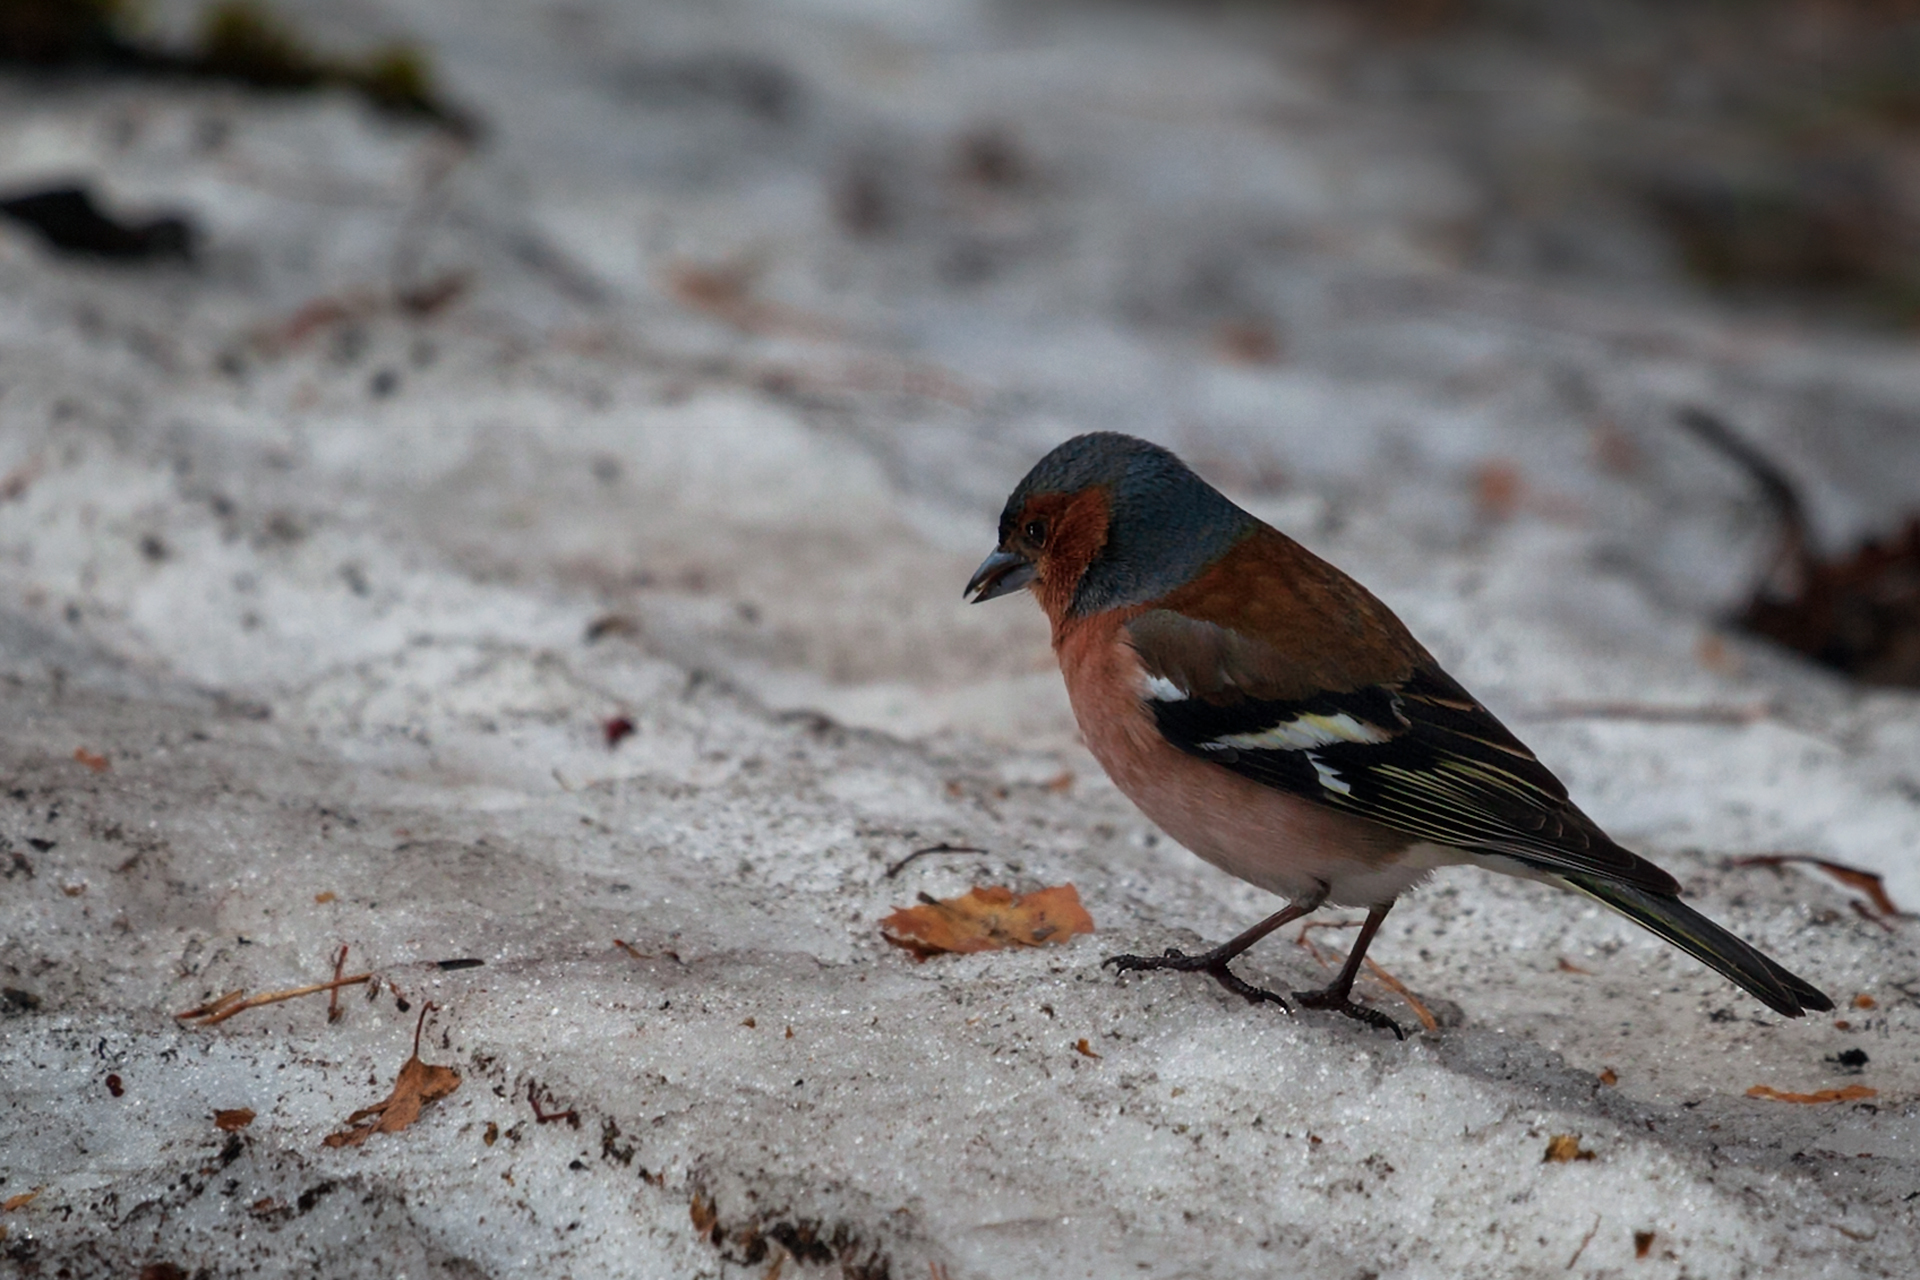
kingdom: Animalia
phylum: Chordata
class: Aves
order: Passeriformes
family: Fringillidae
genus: Fringilla
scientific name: Fringilla coelebs
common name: Common chaffinch
